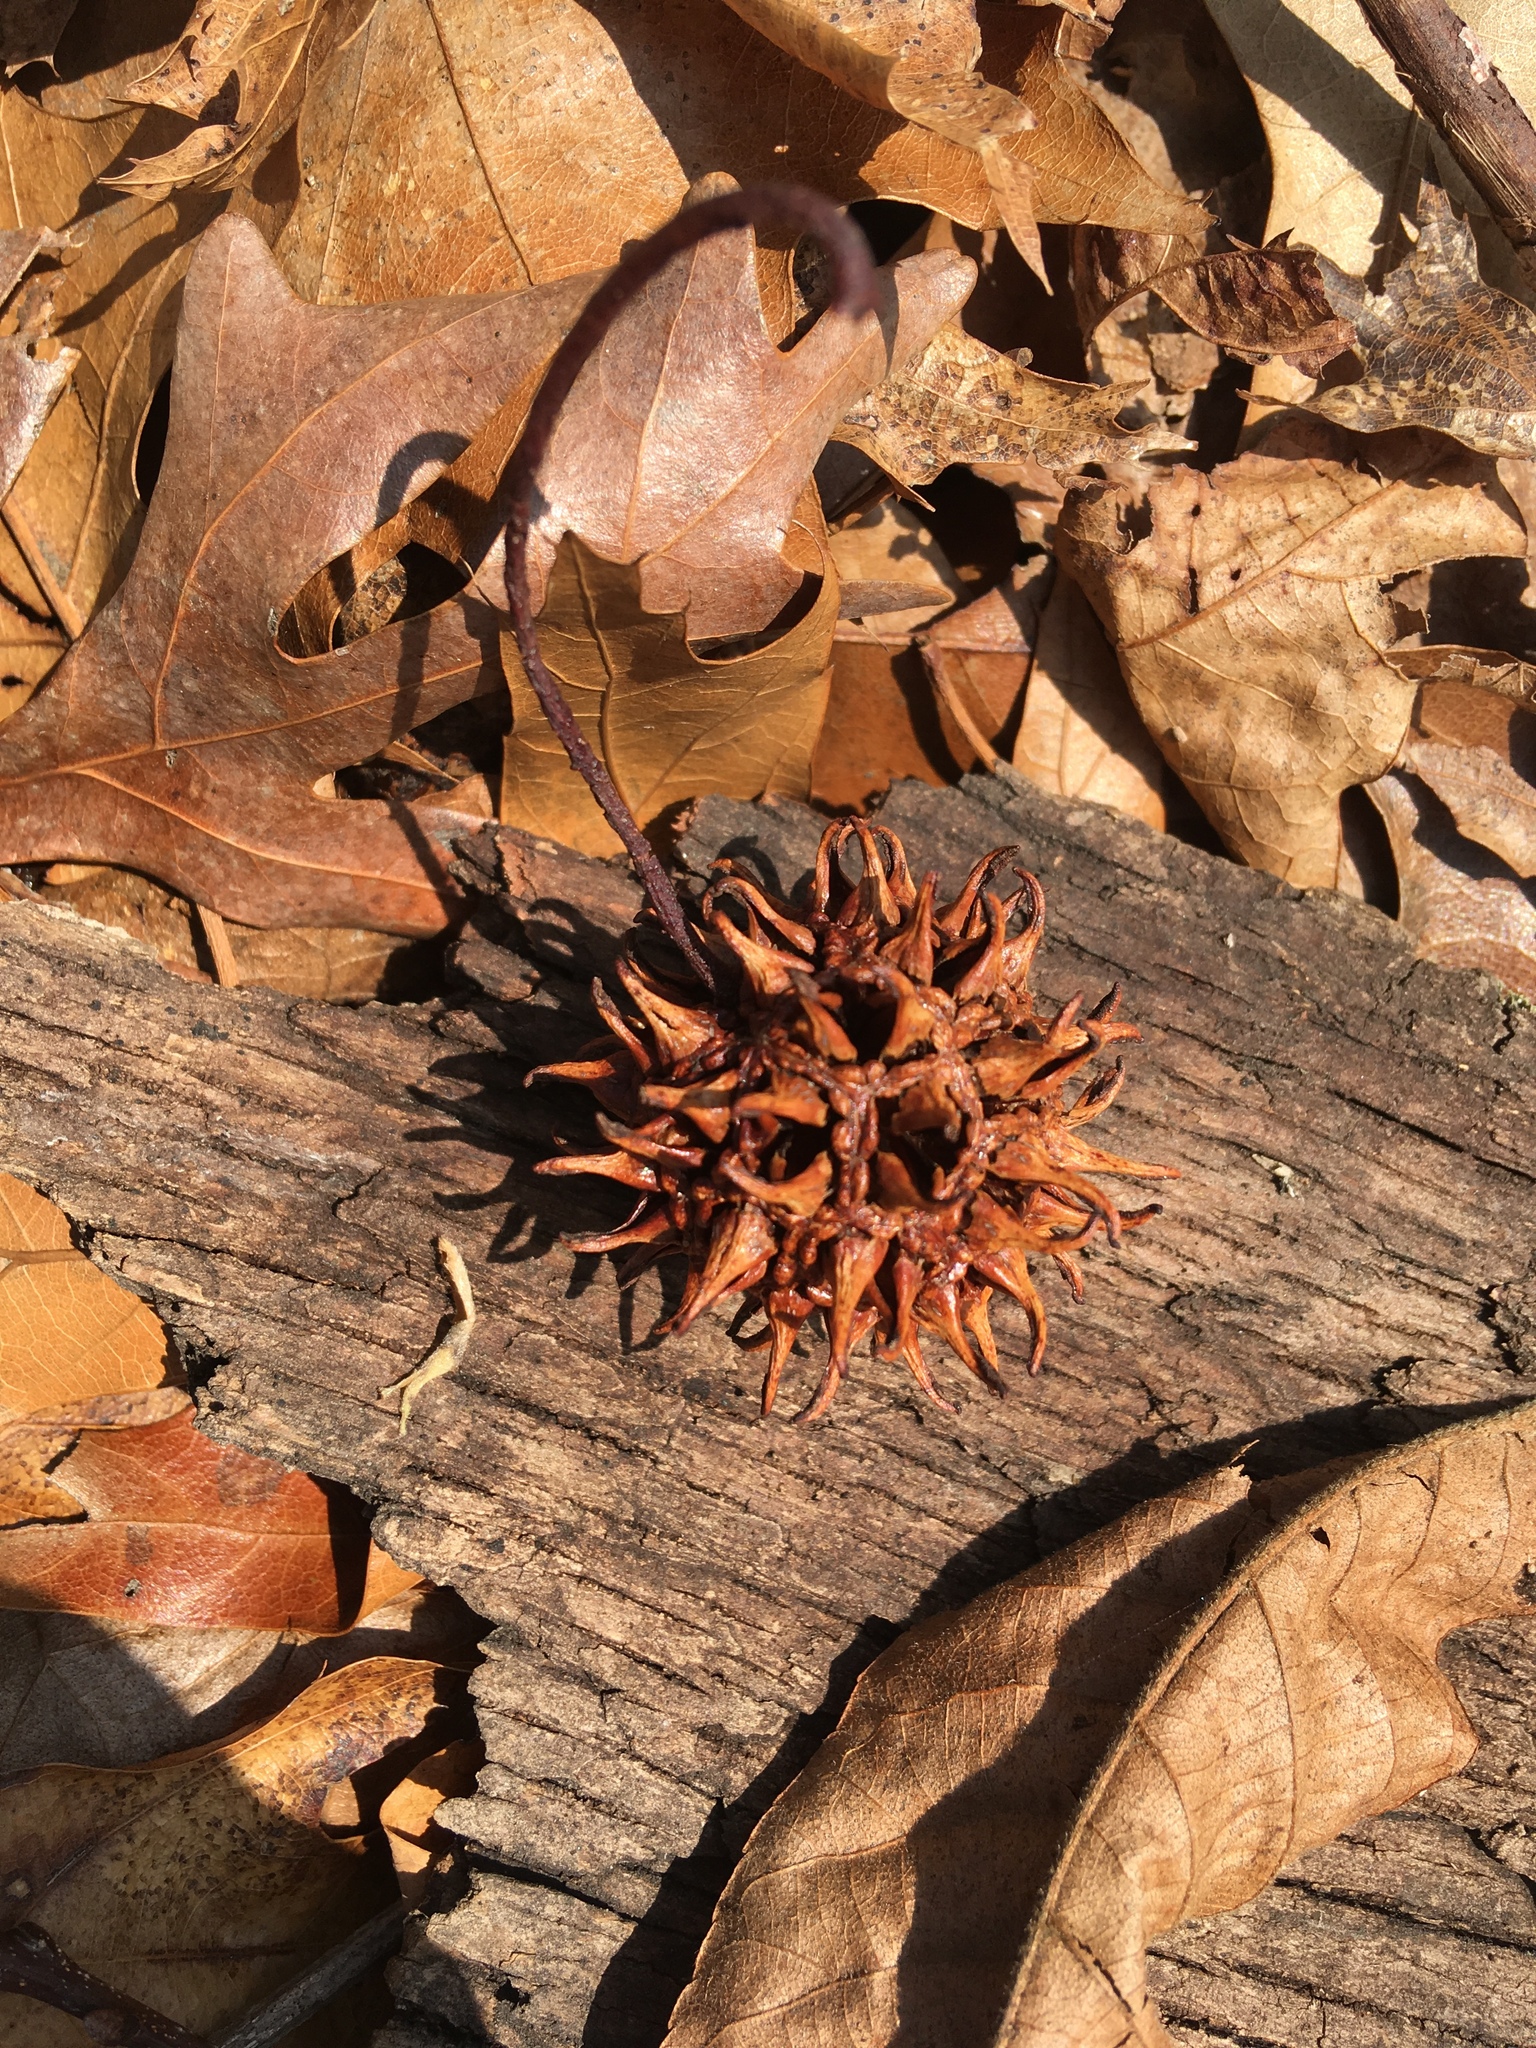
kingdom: Plantae
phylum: Tracheophyta
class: Magnoliopsida
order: Saxifragales
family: Altingiaceae
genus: Liquidambar
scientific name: Liquidambar styraciflua
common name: Sweet gum
